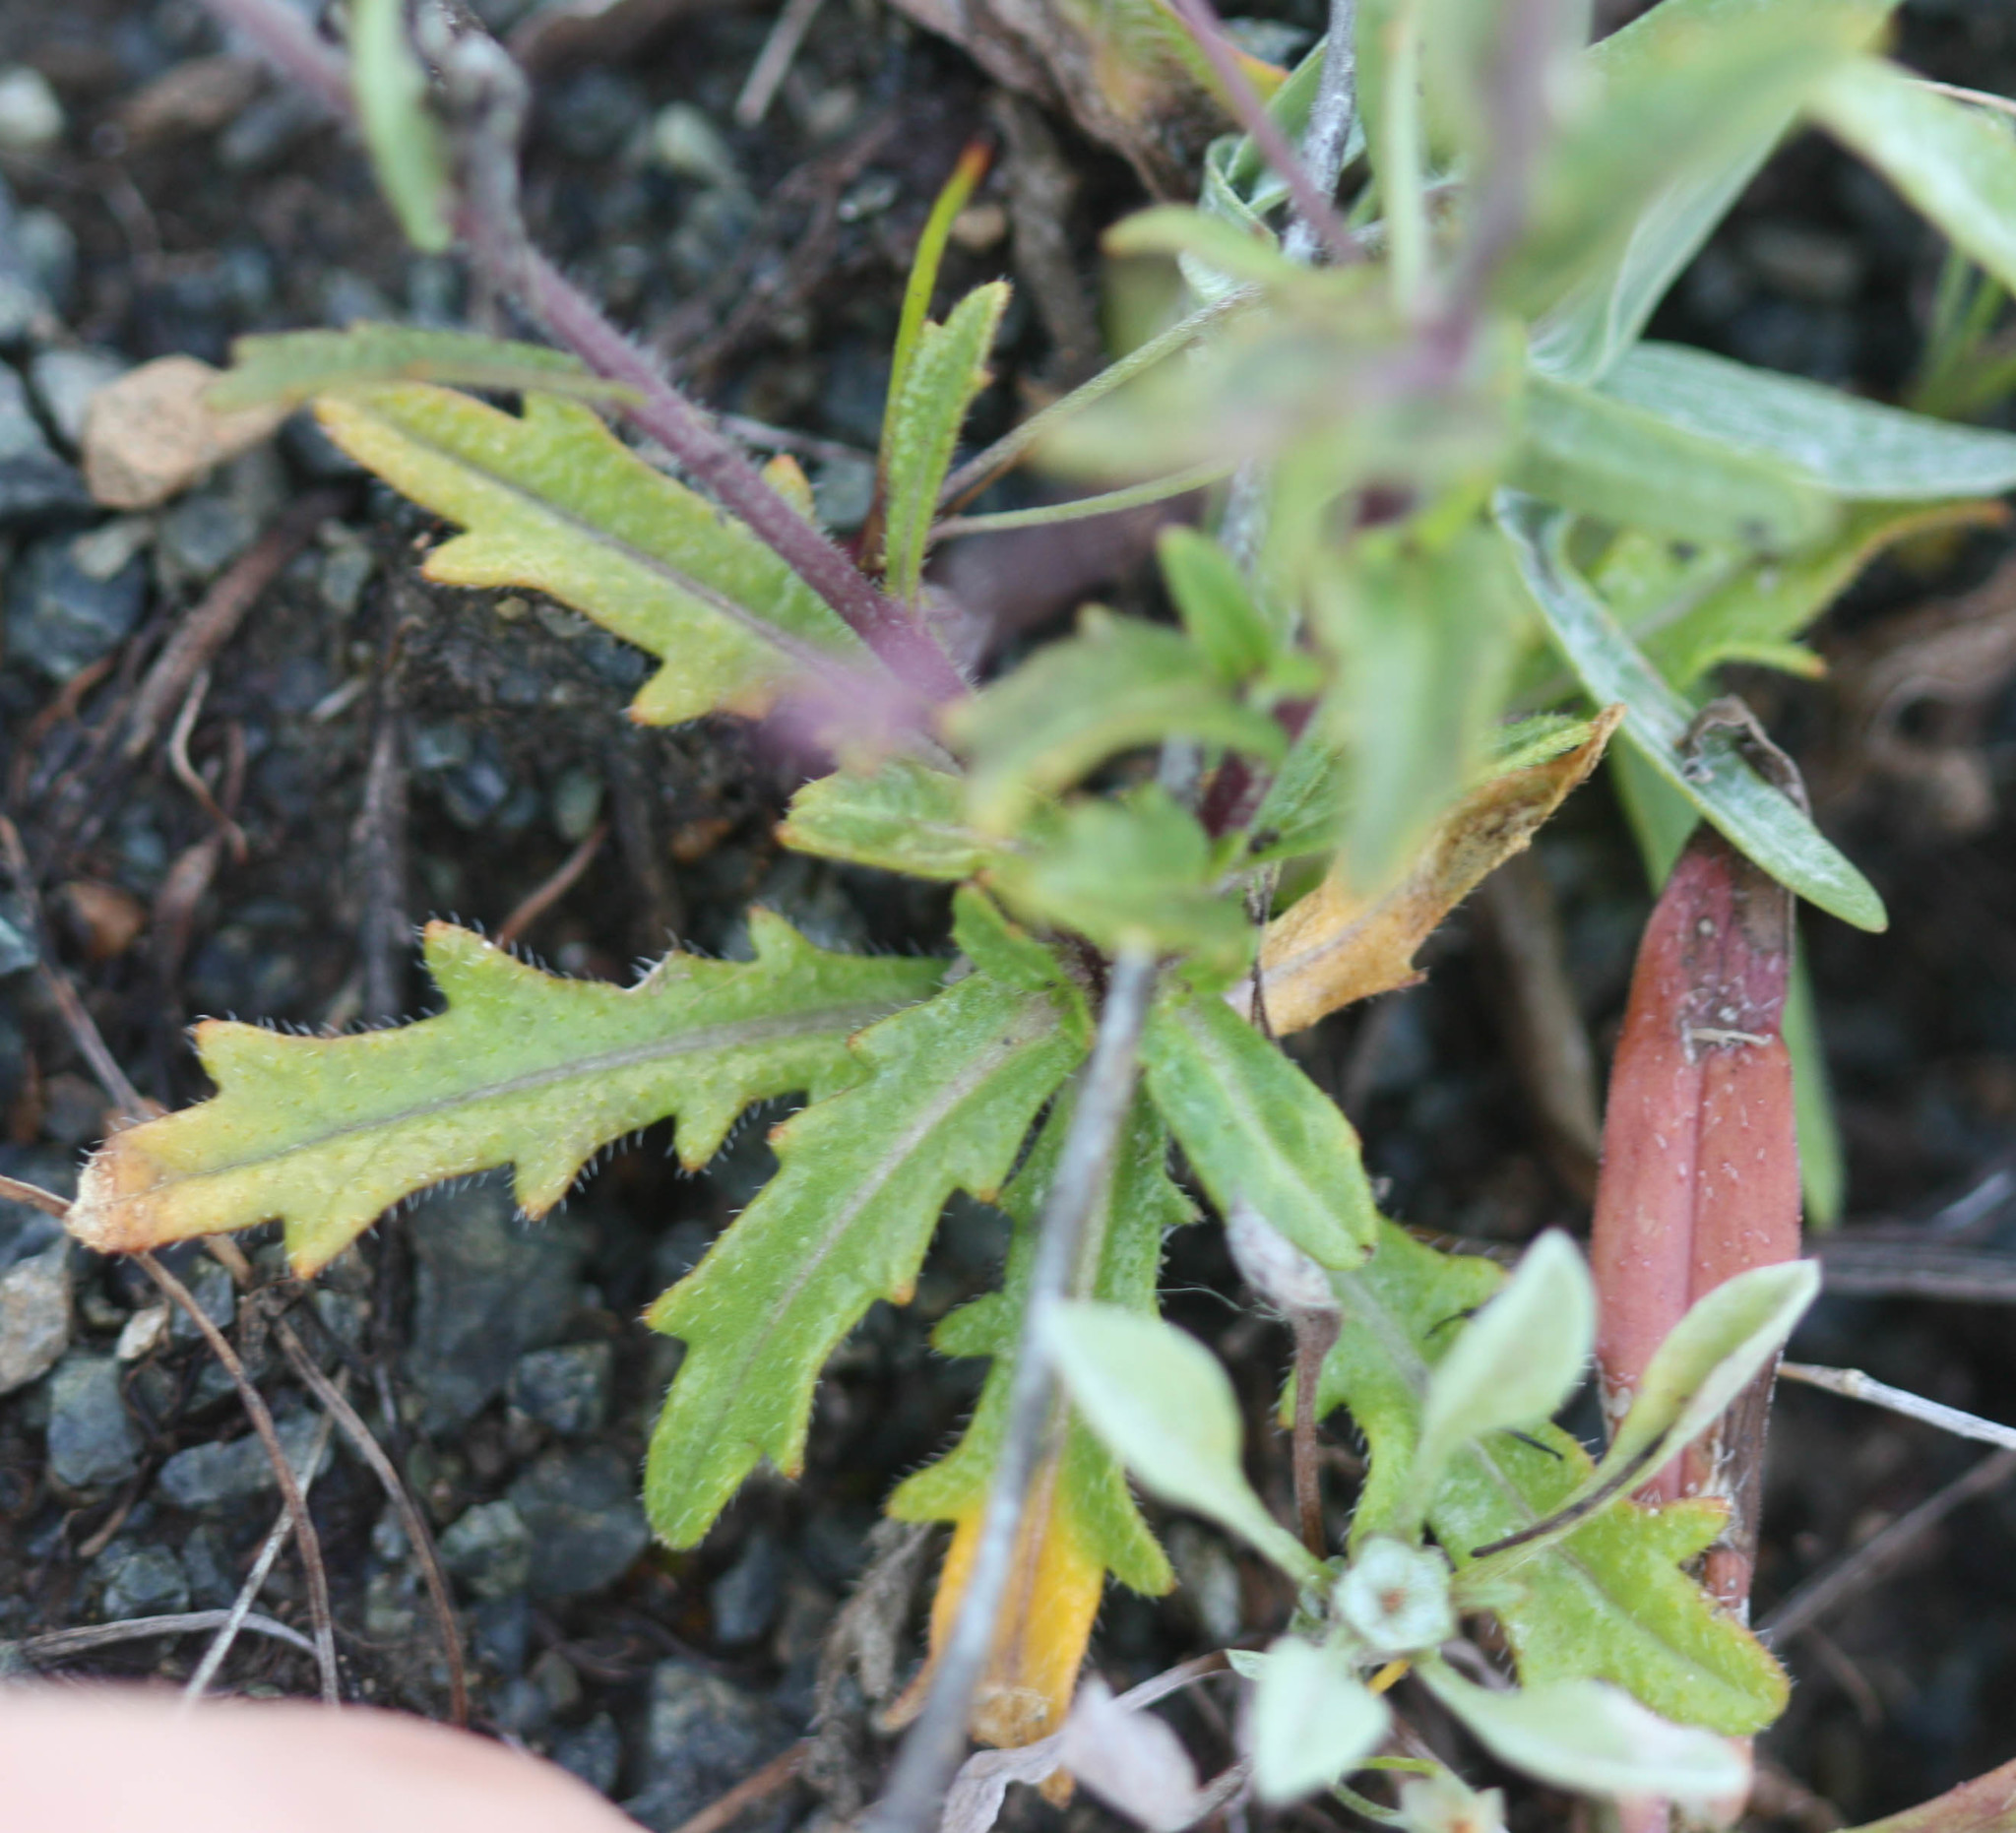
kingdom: Plantae
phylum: Tracheophyta
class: Magnoliopsida
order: Brassicales
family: Brassicaceae
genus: Streptanthus
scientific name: Streptanthus glandulosus
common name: Jewel-flower
